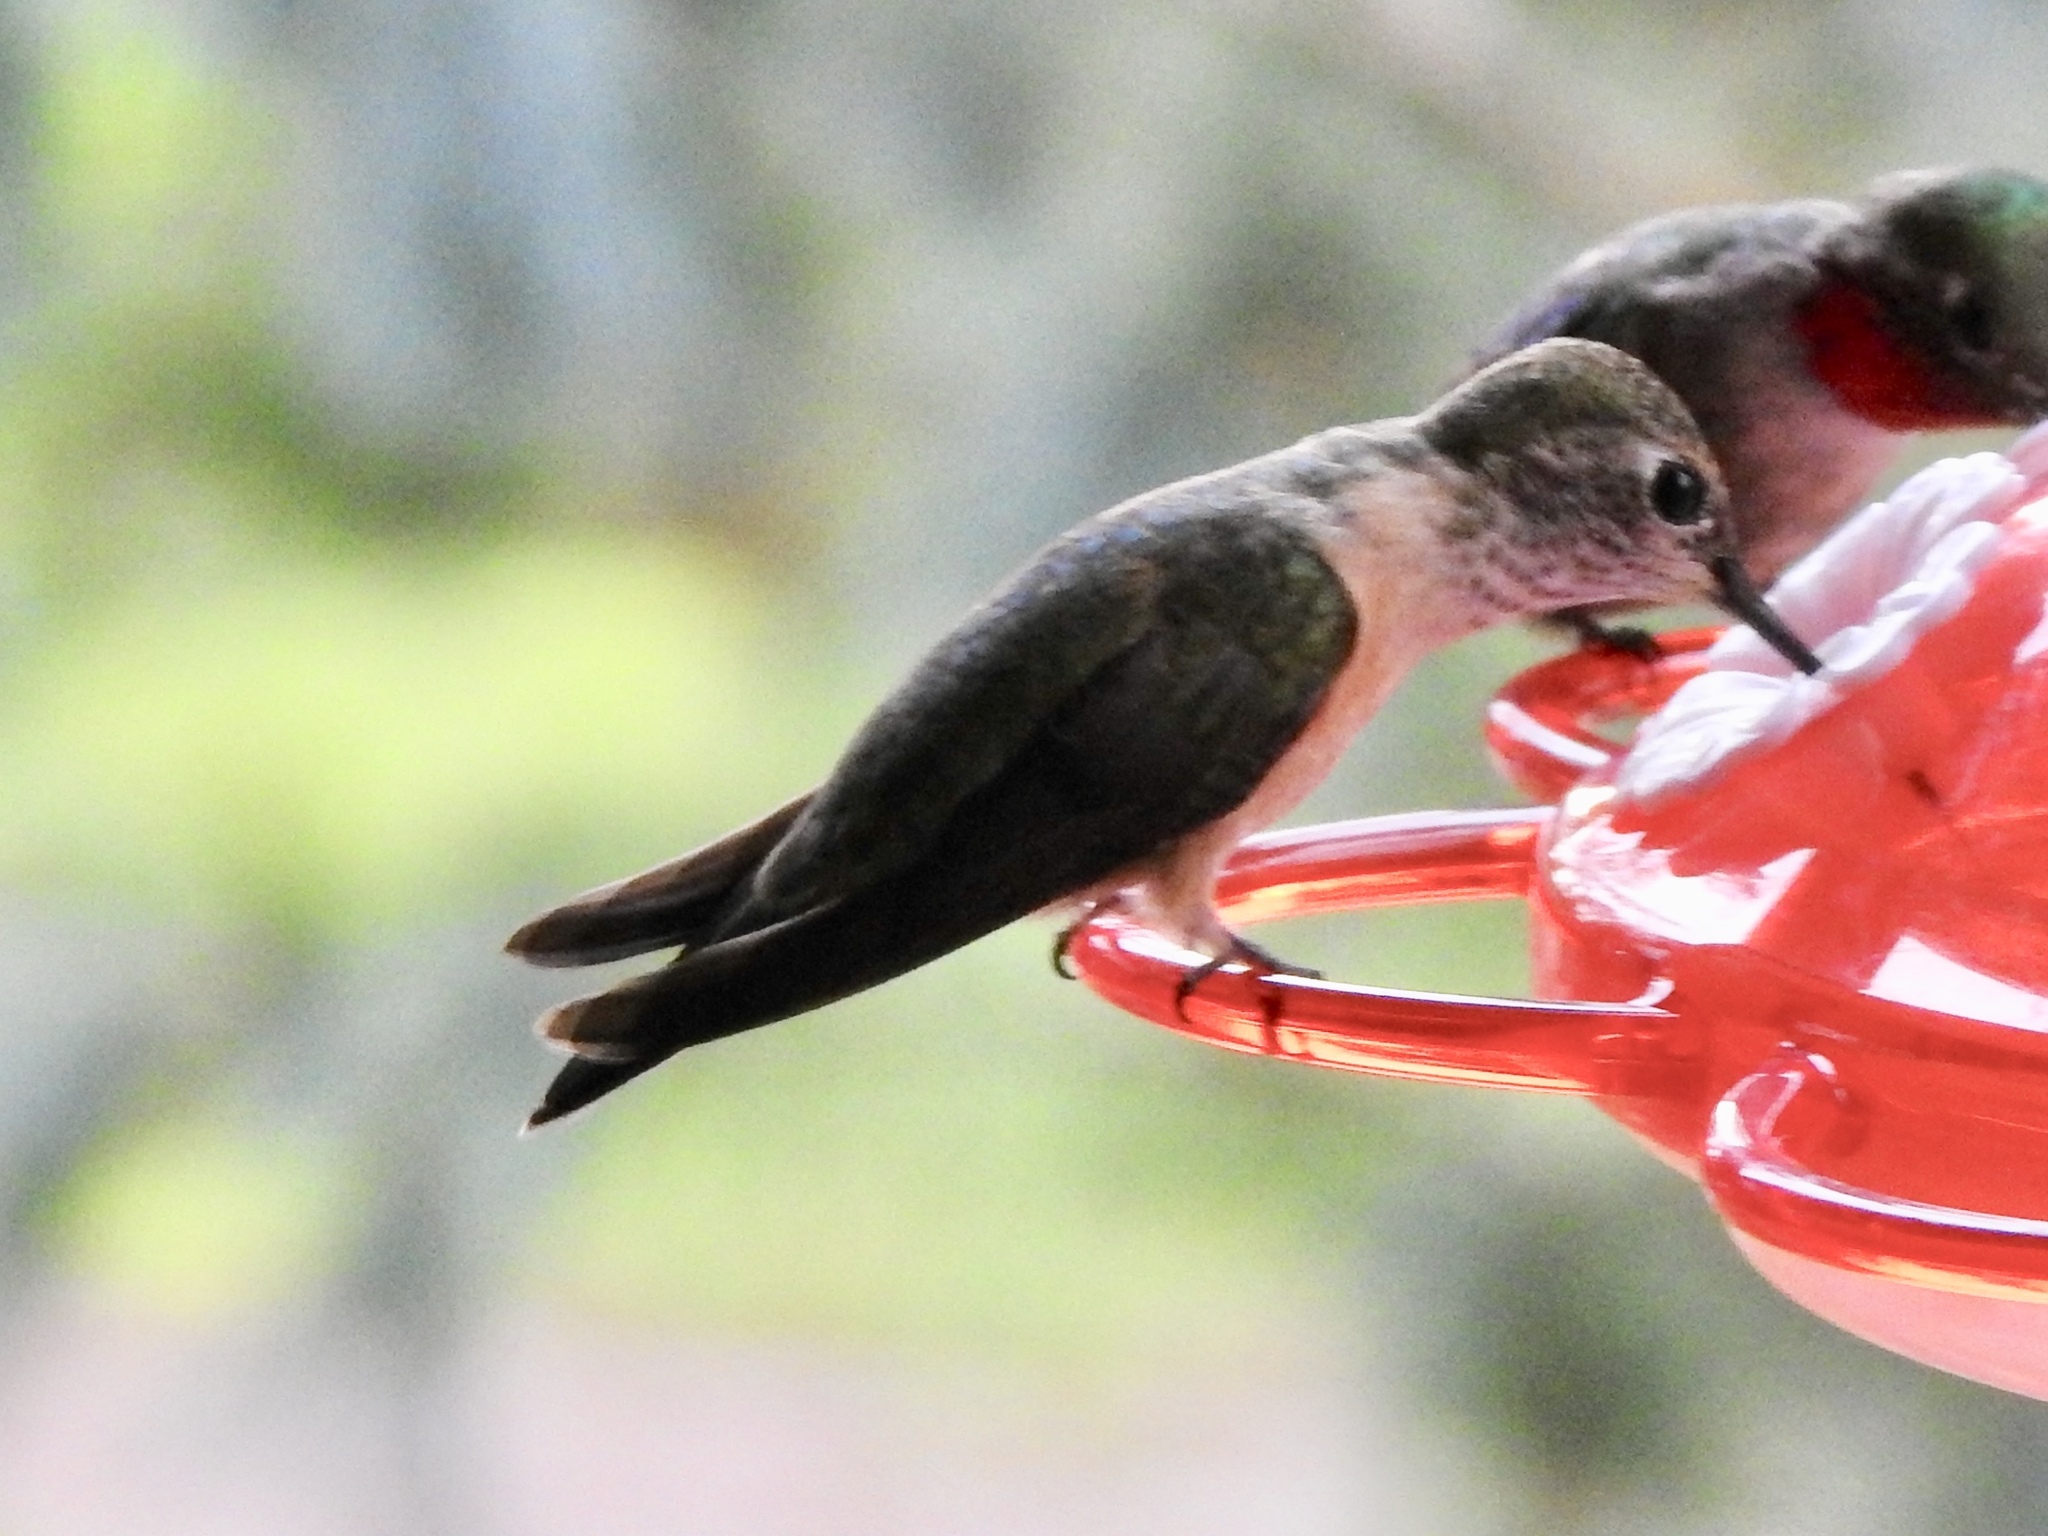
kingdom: Animalia
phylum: Chordata
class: Aves
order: Apodiformes
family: Trochilidae
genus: Selasphorus
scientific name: Selasphorus platycercus
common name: Broad-tailed hummingbird
